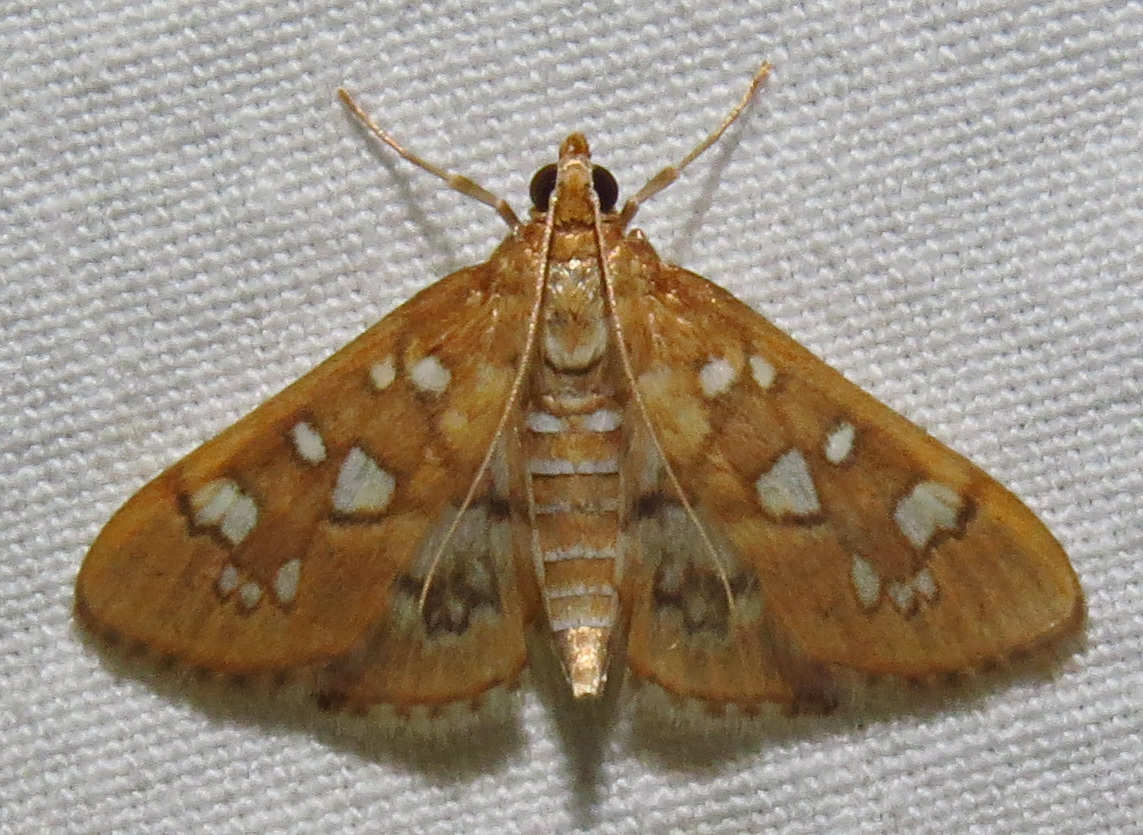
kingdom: Animalia
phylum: Arthropoda
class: Insecta
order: Lepidoptera
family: Crambidae
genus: Samea
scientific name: Samea baccatalis
